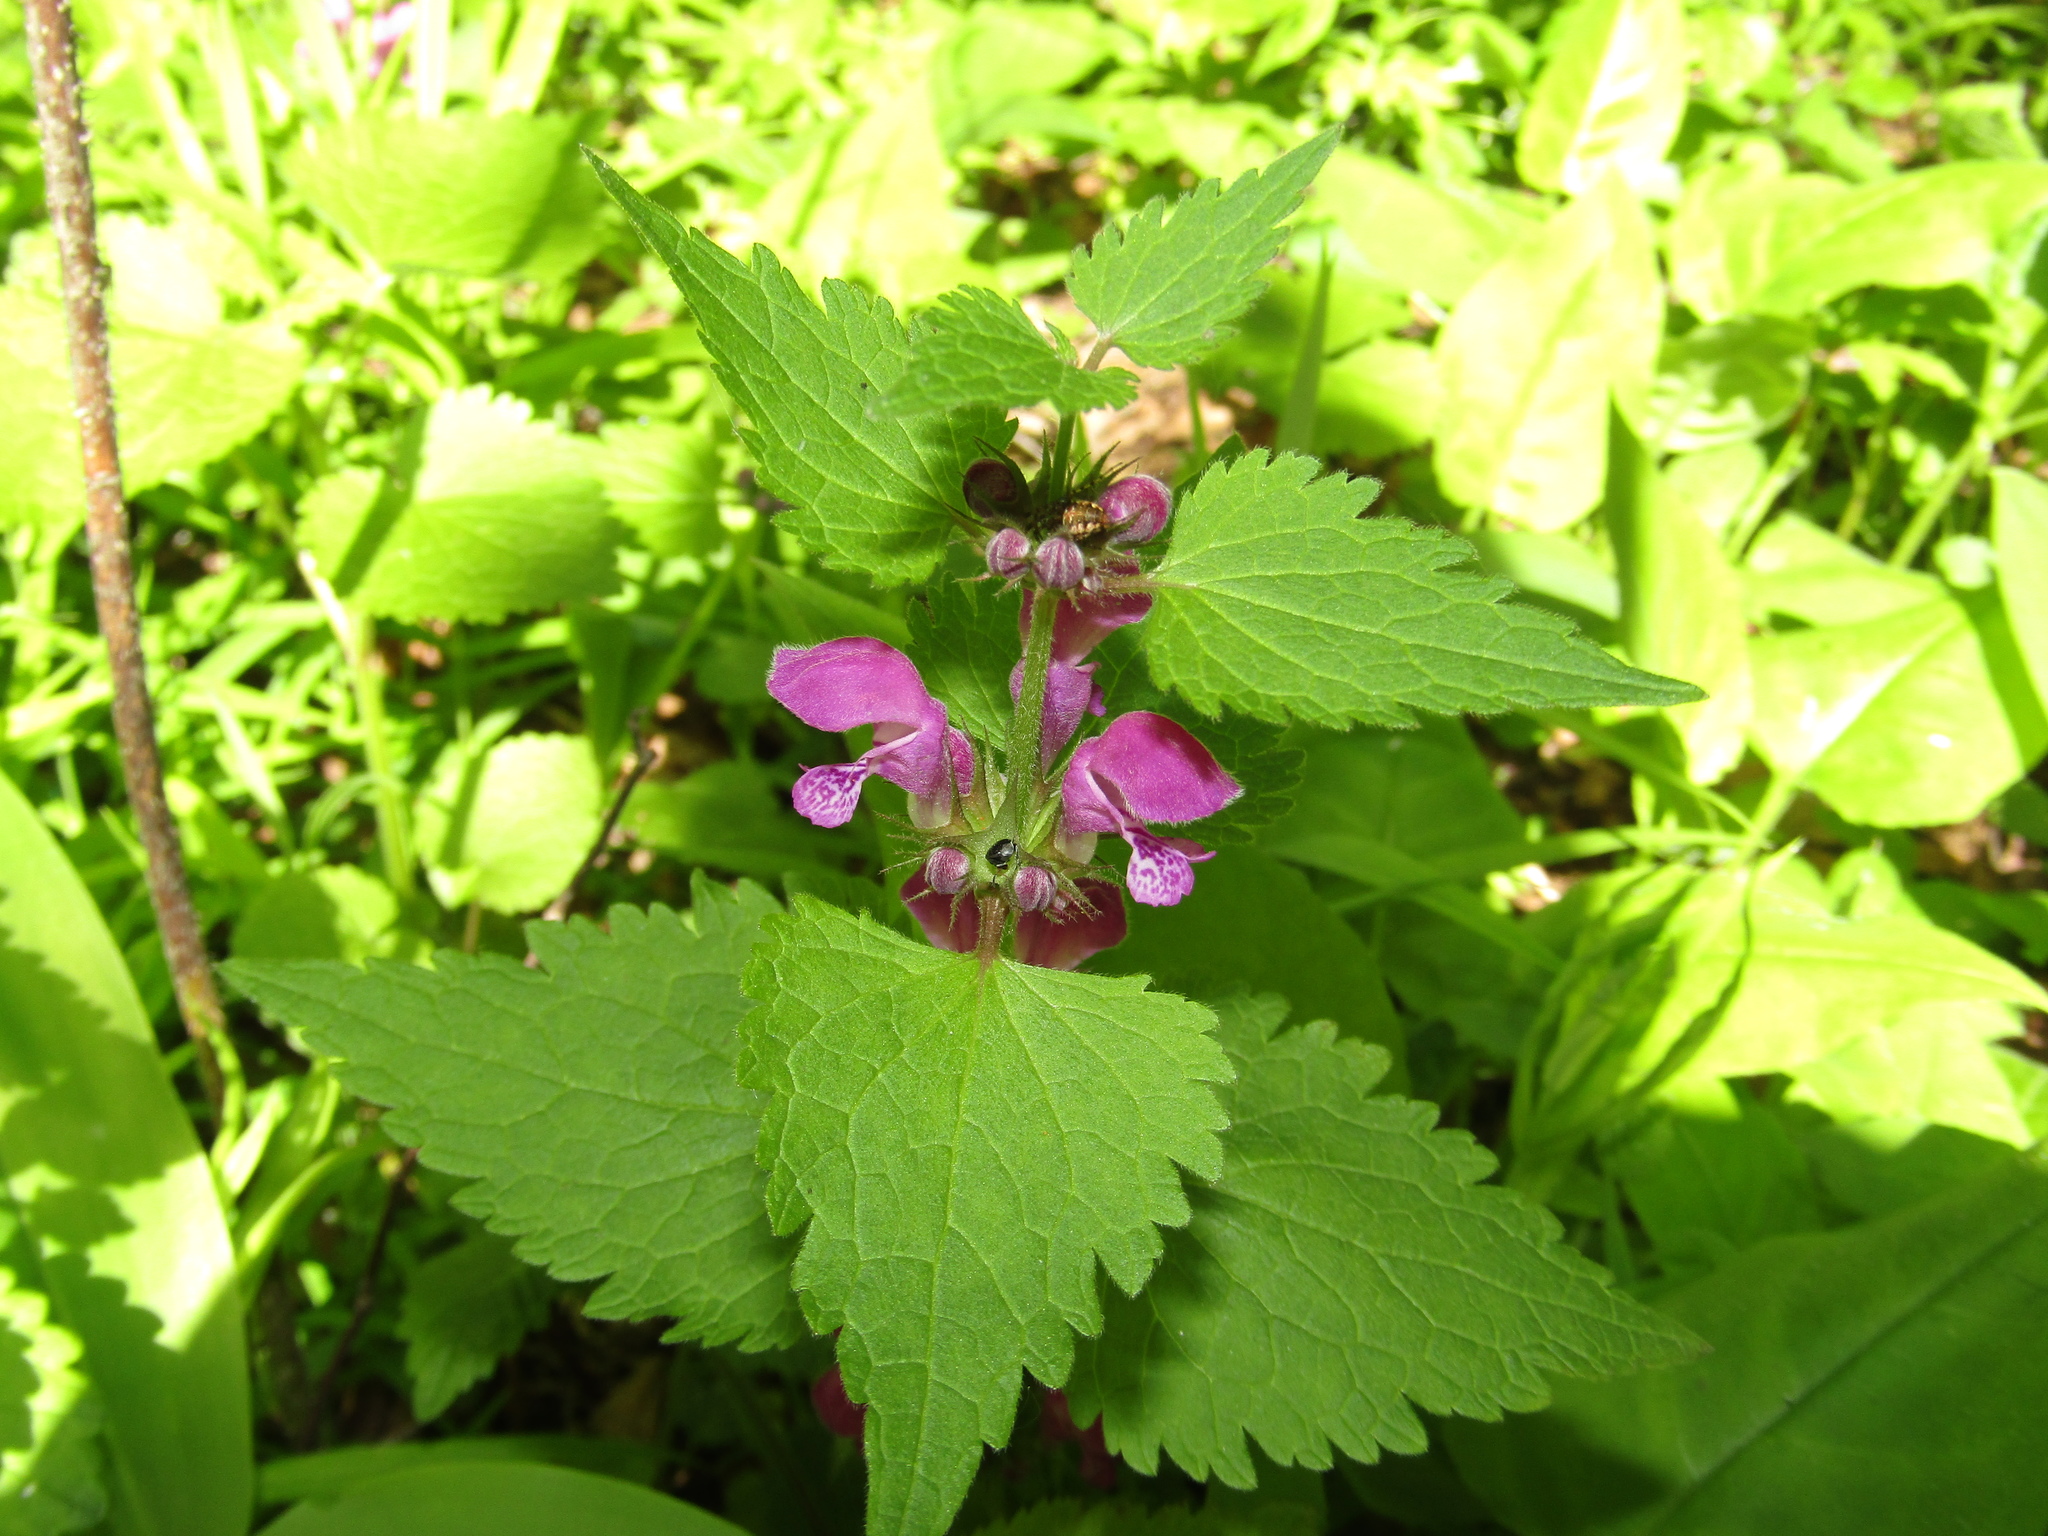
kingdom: Plantae
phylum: Tracheophyta
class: Magnoliopsida
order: Lamiales
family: Lamiaceae
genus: Lamium
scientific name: Lamium maculatum
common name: Spotted dead-nettle
